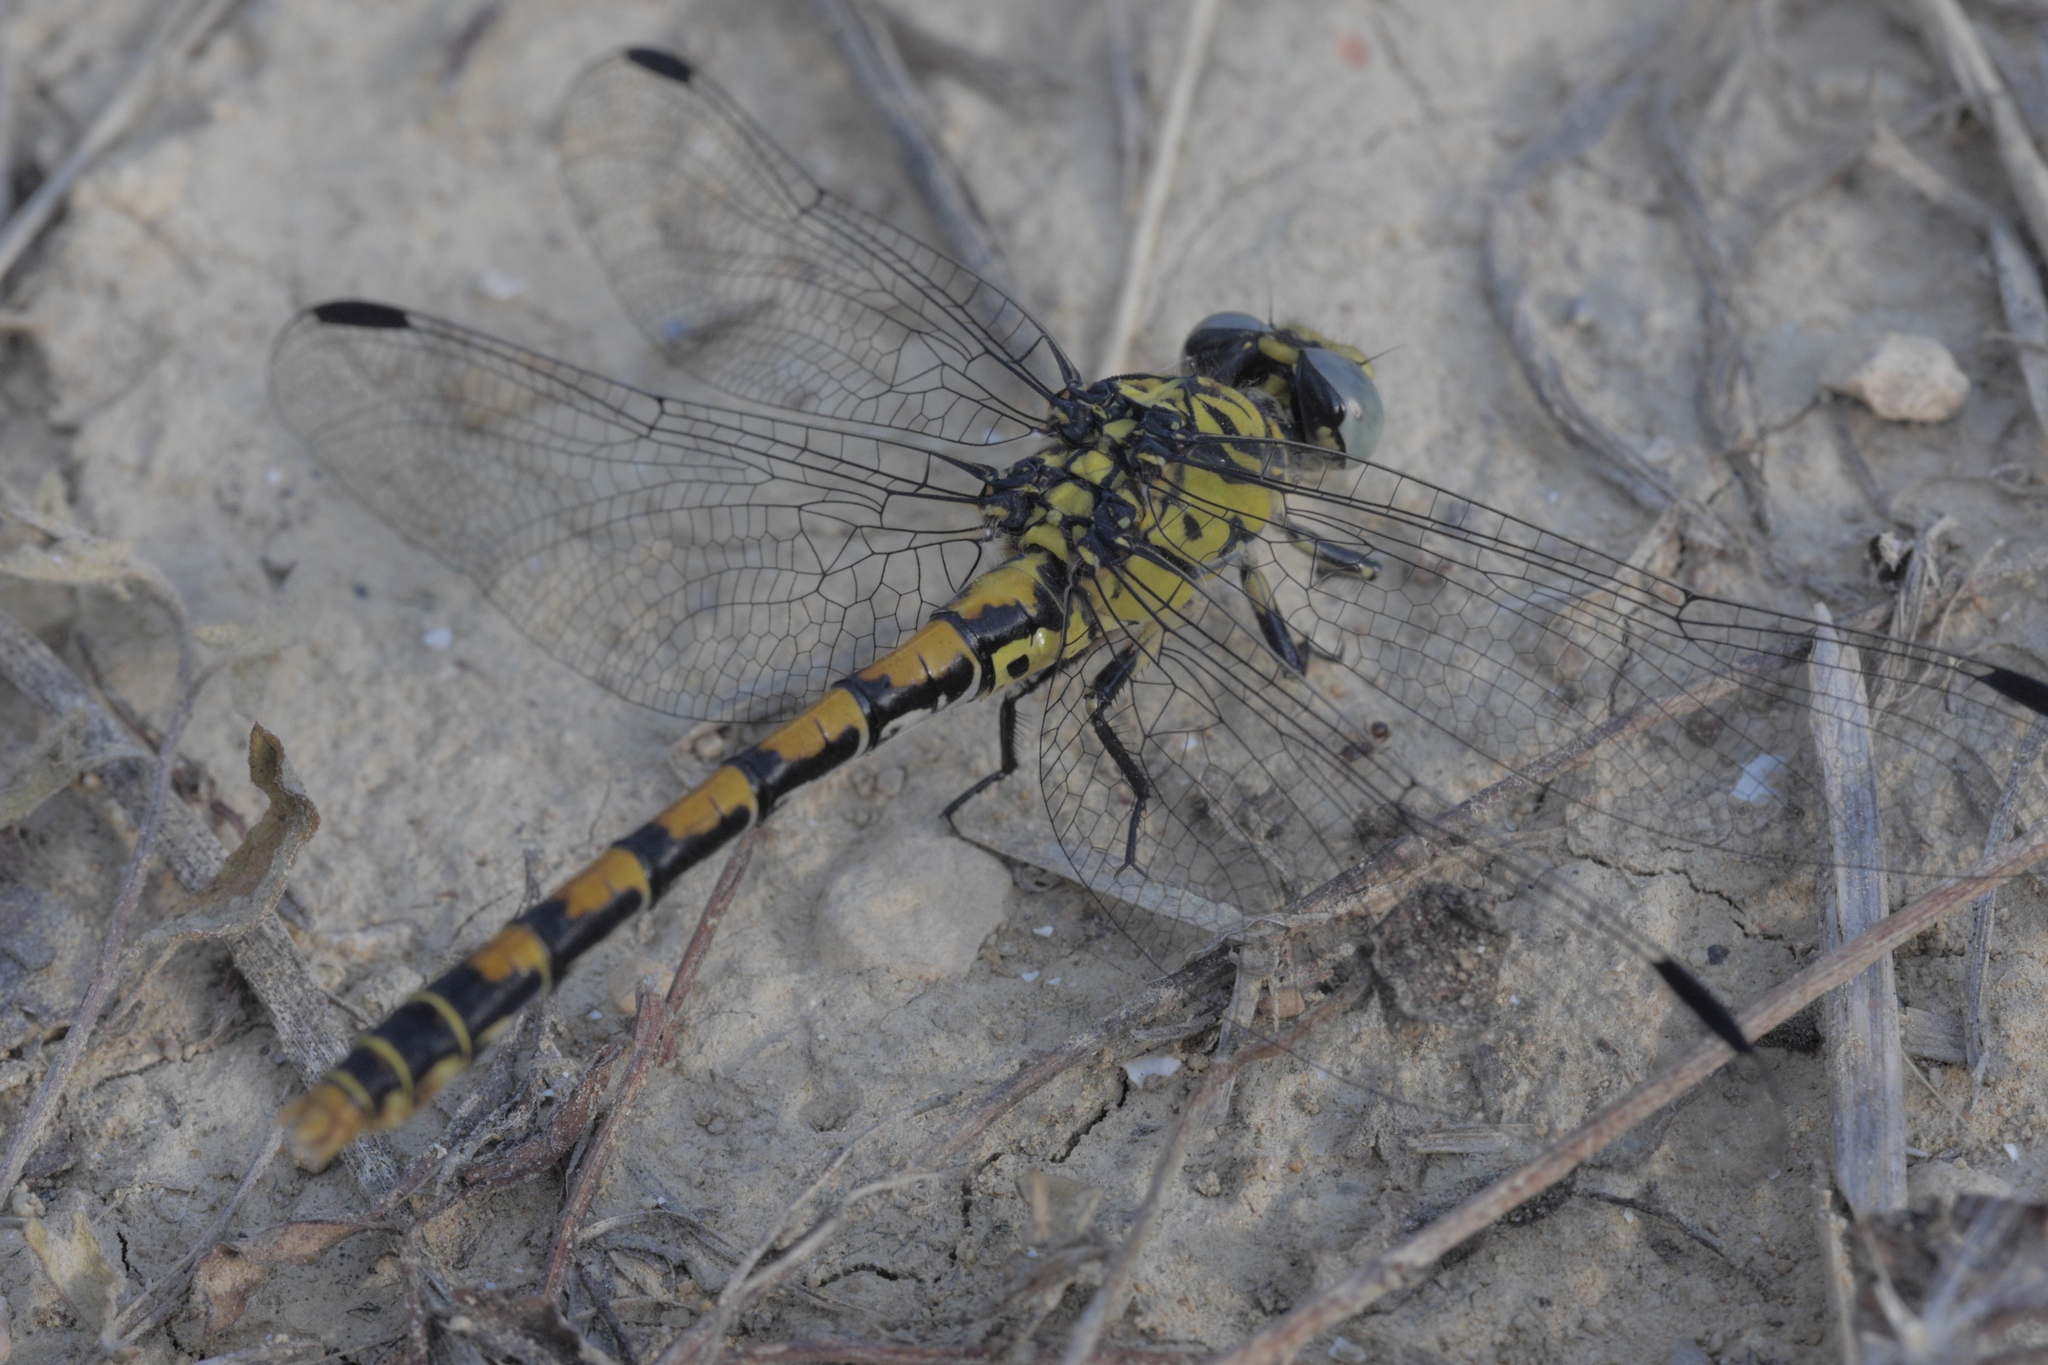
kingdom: Animalia
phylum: Arthropoda
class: Insecta
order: Odonata
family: Gomphidae
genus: Onychogomphus
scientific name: Onychogomphus forcipatus
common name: Small pincertail
